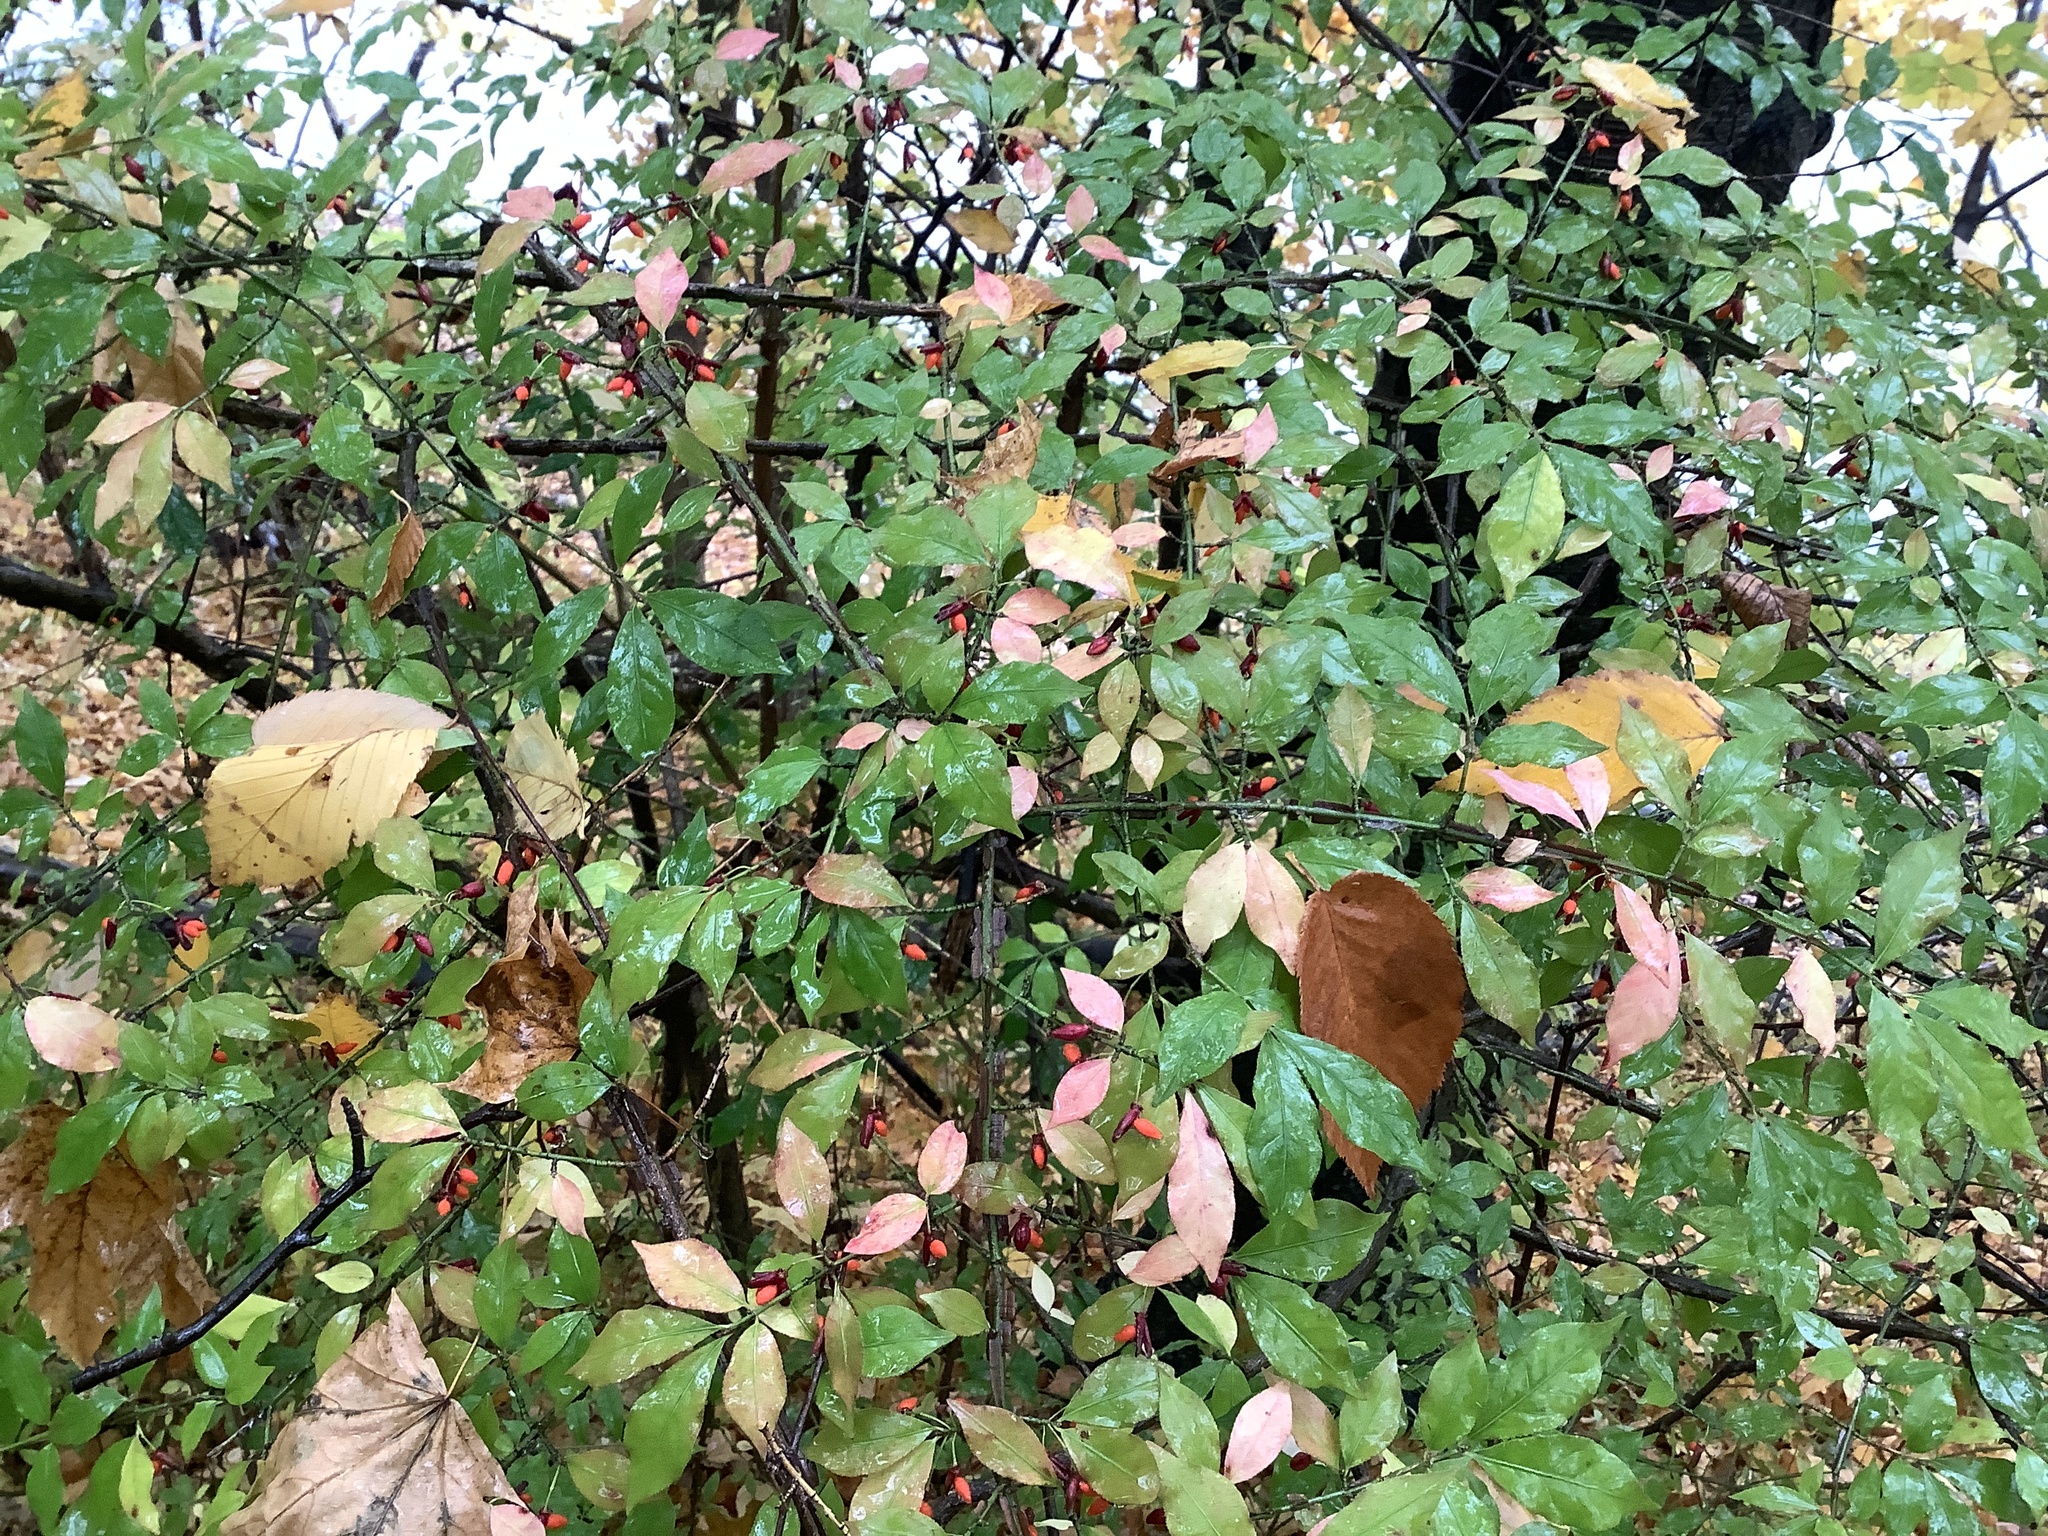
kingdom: Plantae
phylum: Tracheophyta
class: Magnoliopsida
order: Celastrales
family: Celastraceae
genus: Euonymus
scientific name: Euonymus alatus
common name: Winged euonymus
